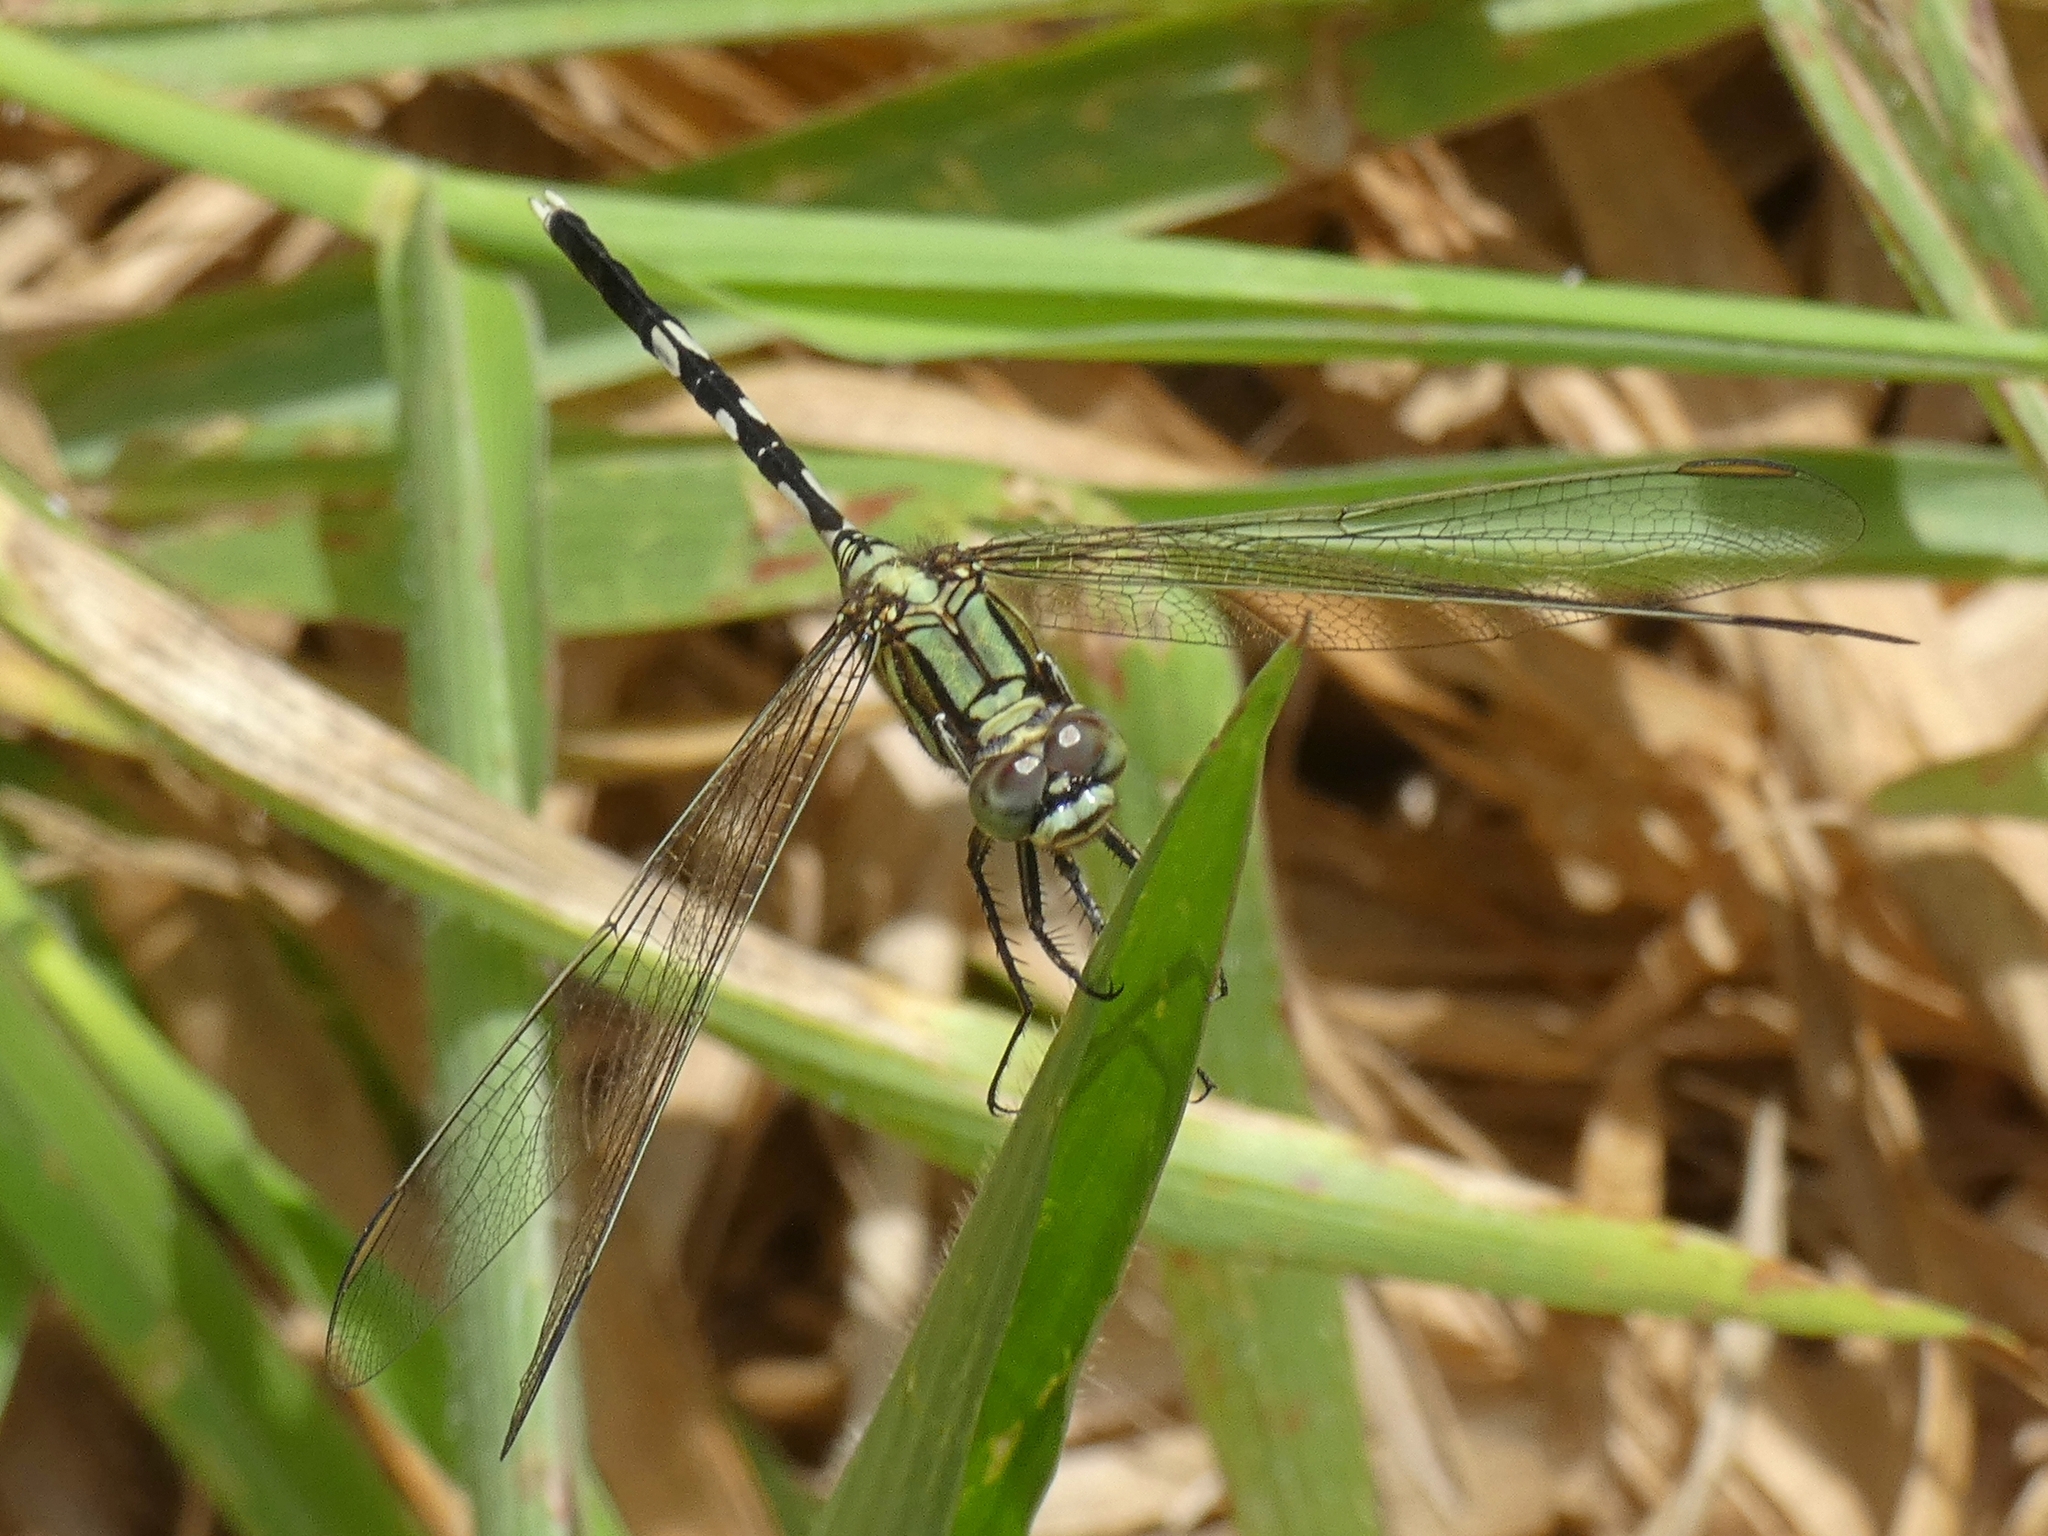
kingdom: Animalia
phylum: Arthropoda
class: Insecta
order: Odonata
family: Libellulidae
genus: Orthetrum
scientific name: Orthetrum sabina
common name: Slender skimmer
